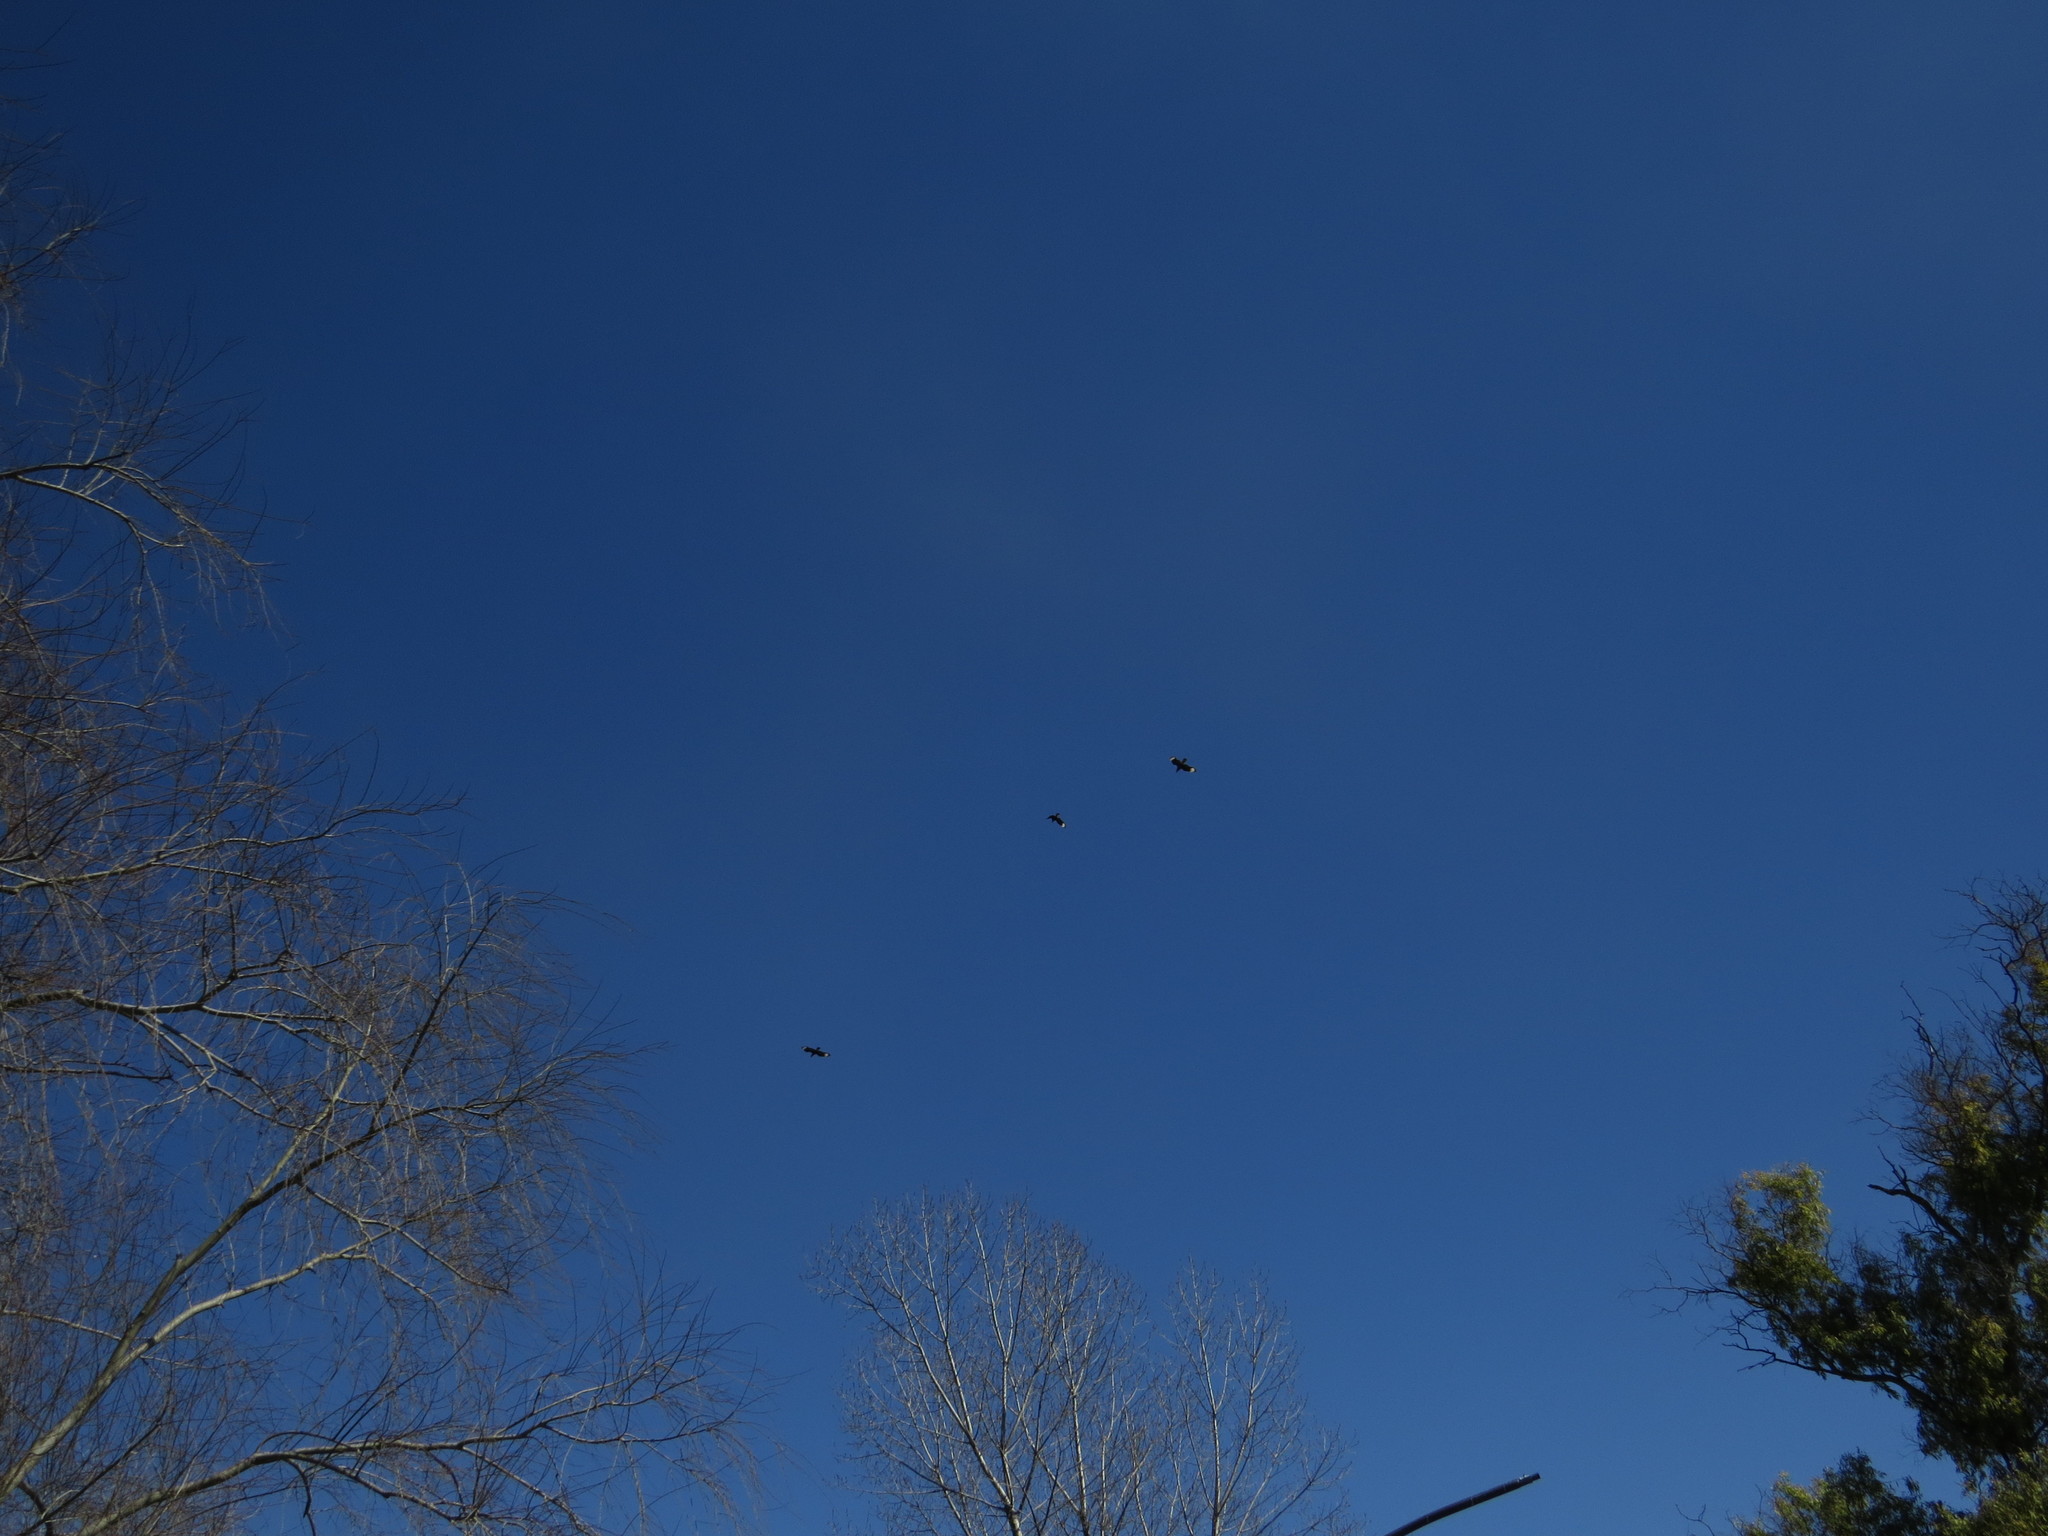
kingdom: Animalia
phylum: Chordata
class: Aves
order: Falconiformes
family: Falconidae
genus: Caracara
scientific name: Caracara plancus
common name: Southern caracara
